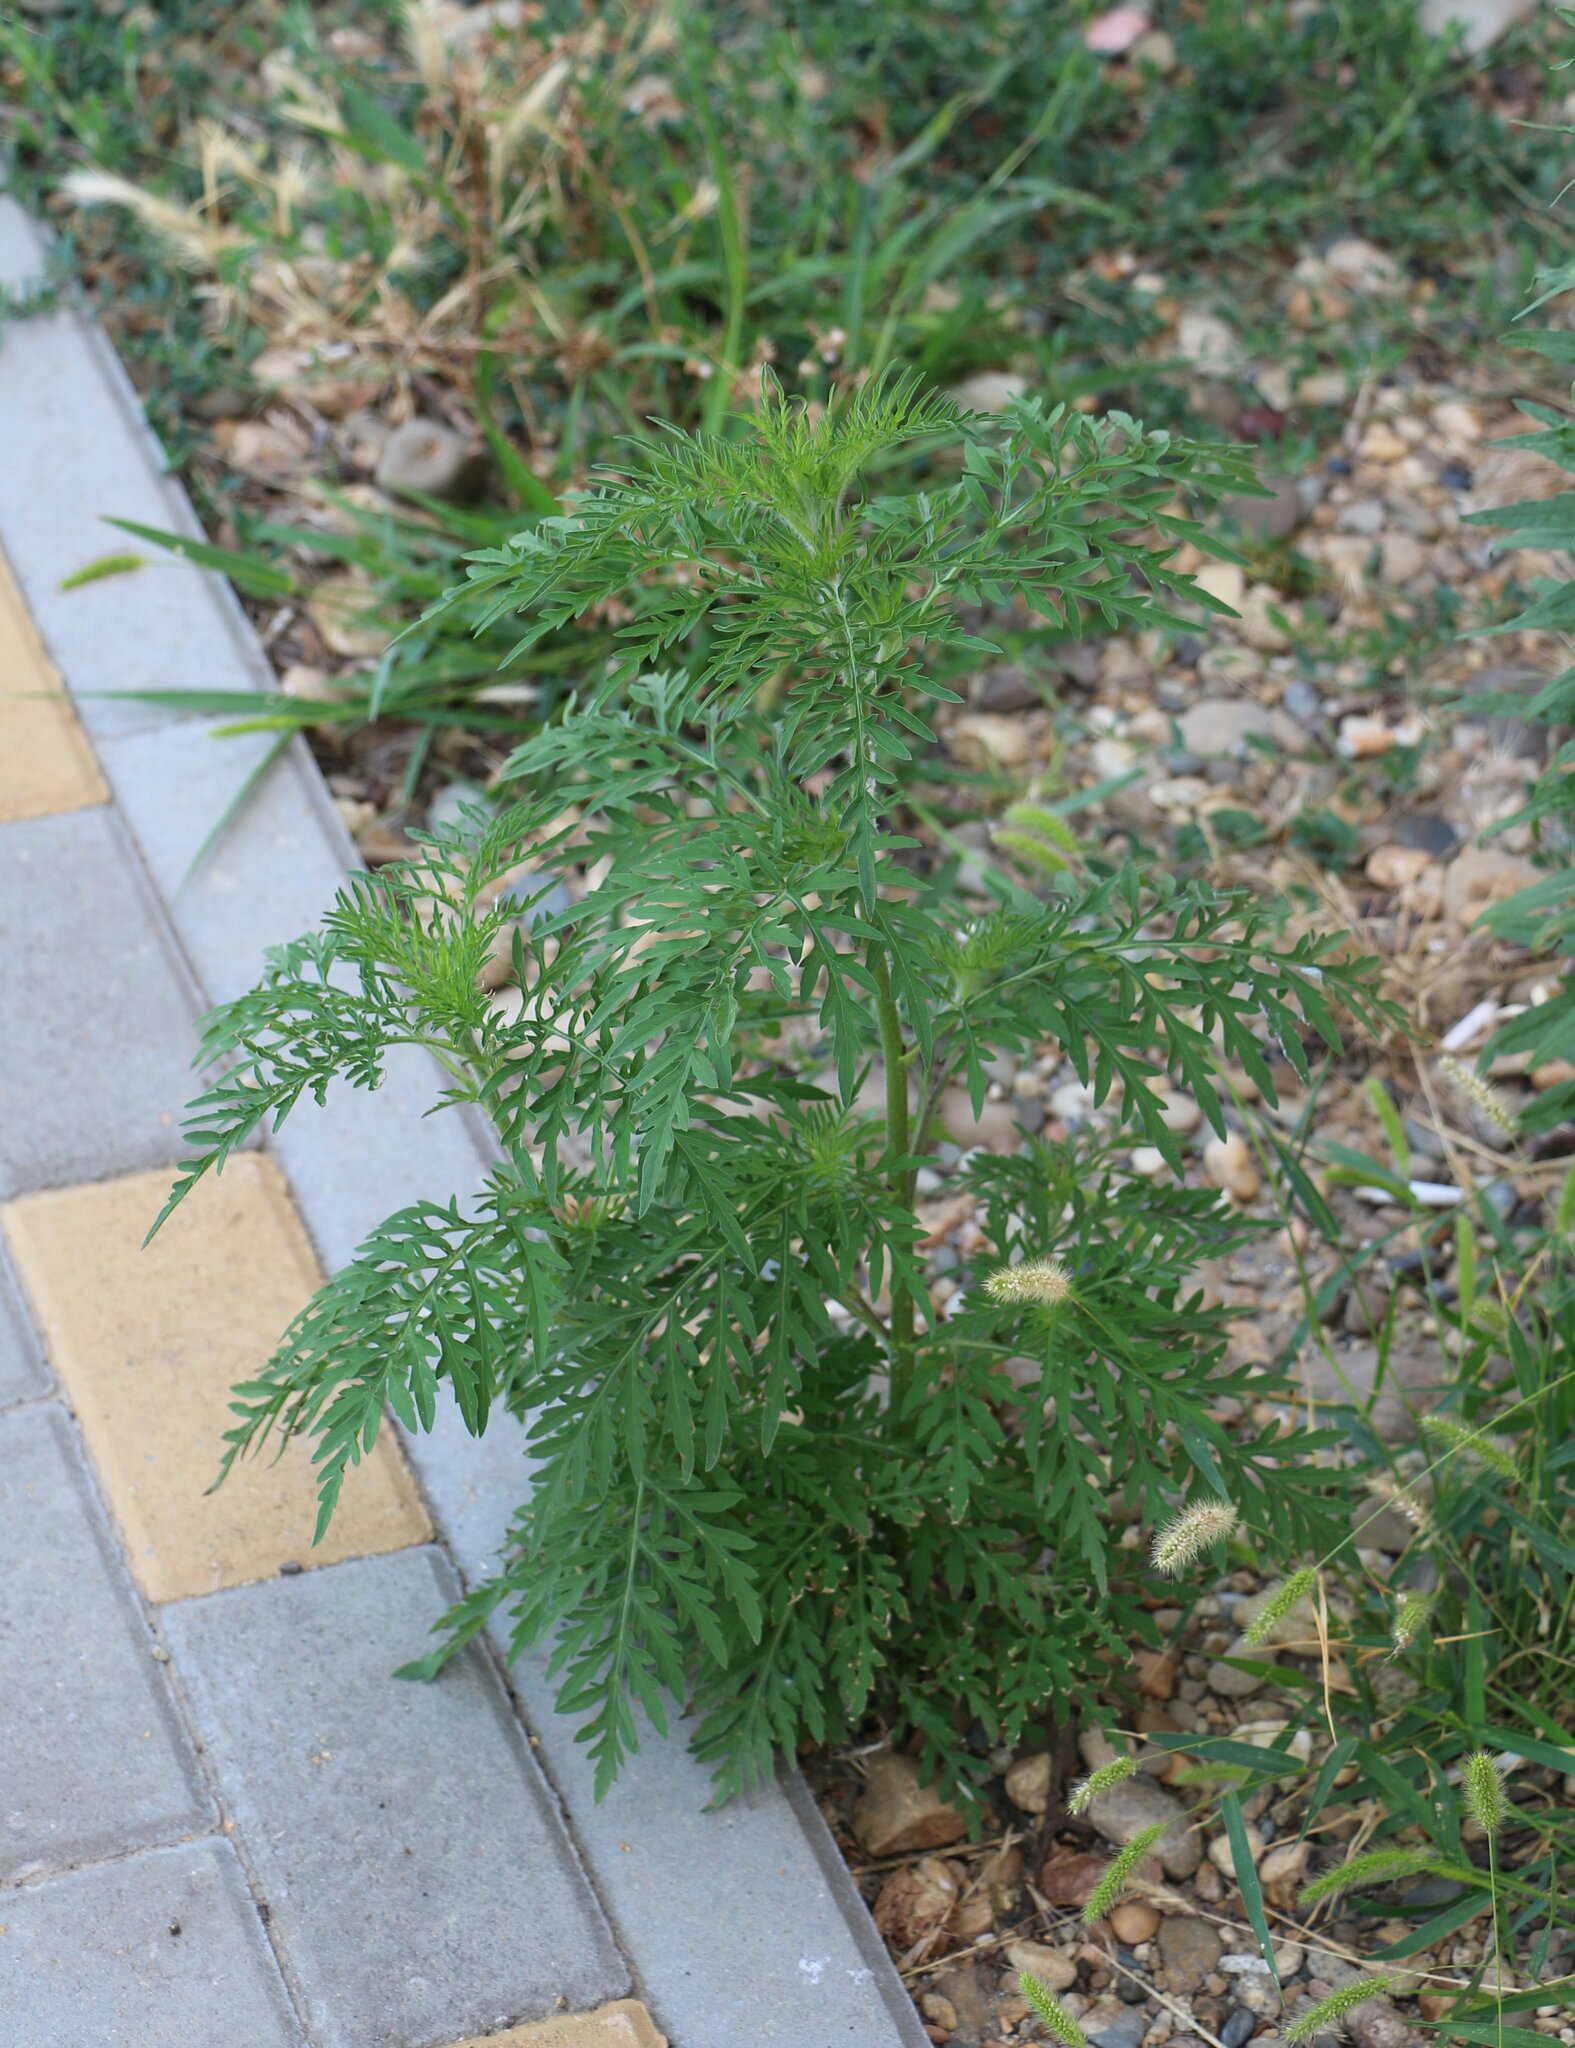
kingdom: Plantae
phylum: Tracheophyta
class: Magnoliopsida
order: Asterales
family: Asteraceae
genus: Ambrosia
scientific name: Ambrosia artemisiifolia
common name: Annual ragweed
